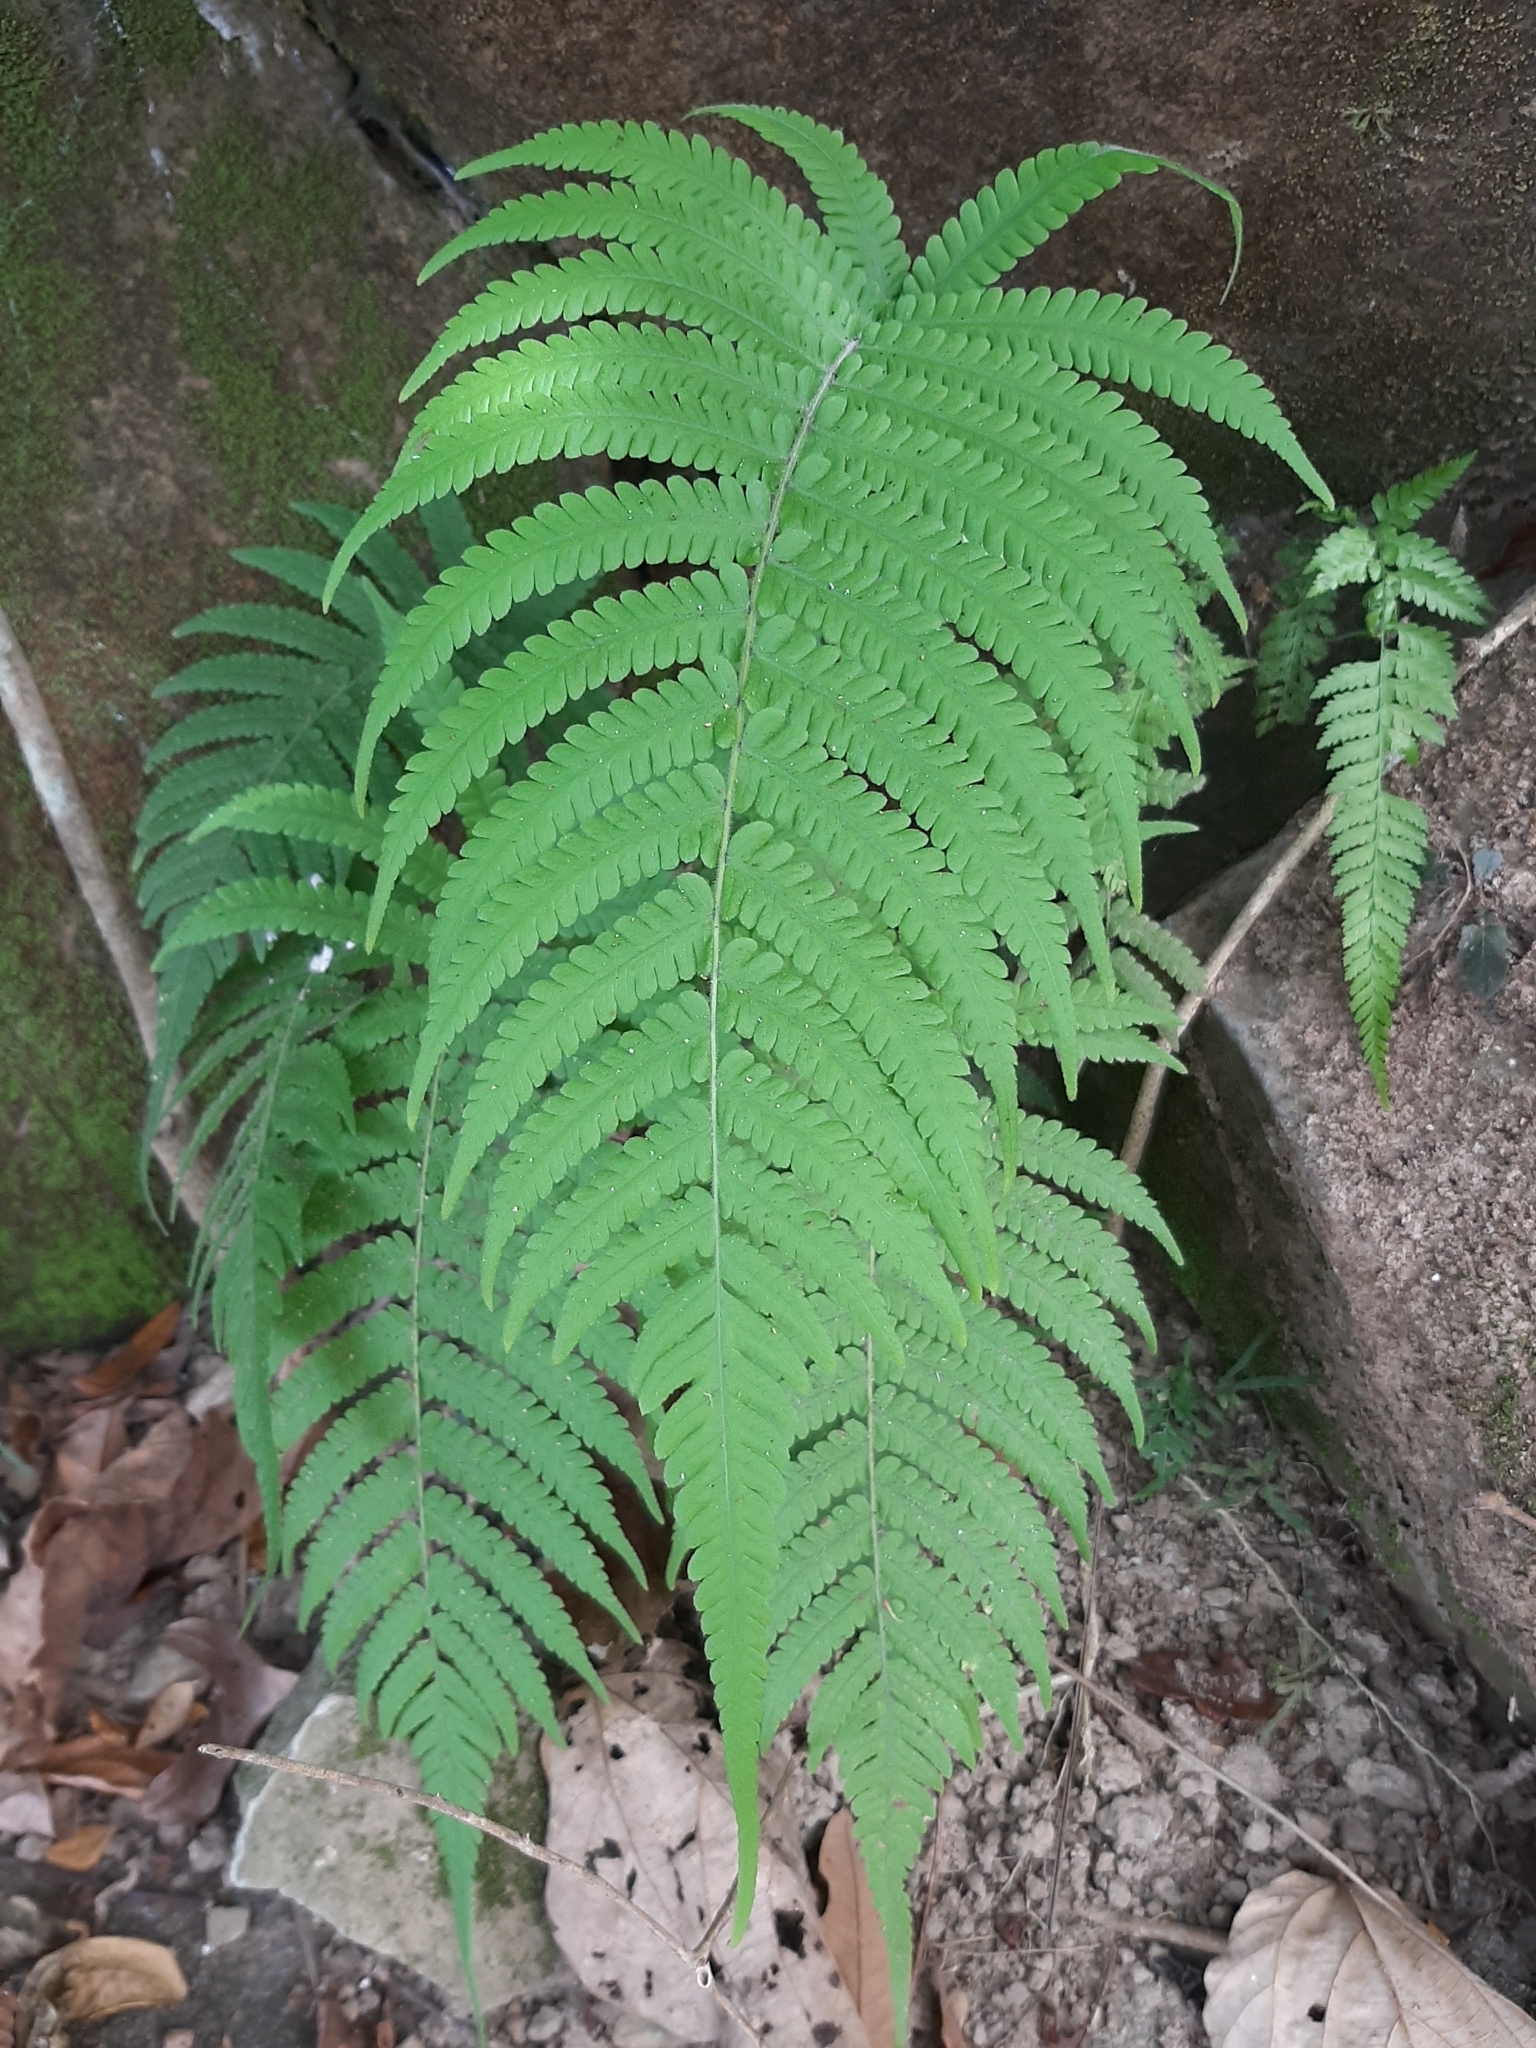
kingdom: Plantae
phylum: Tracheophyta
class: Polypodiopsida
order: Polypodiales
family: Thelypteridaceae
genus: Christella
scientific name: Christella parasitica
